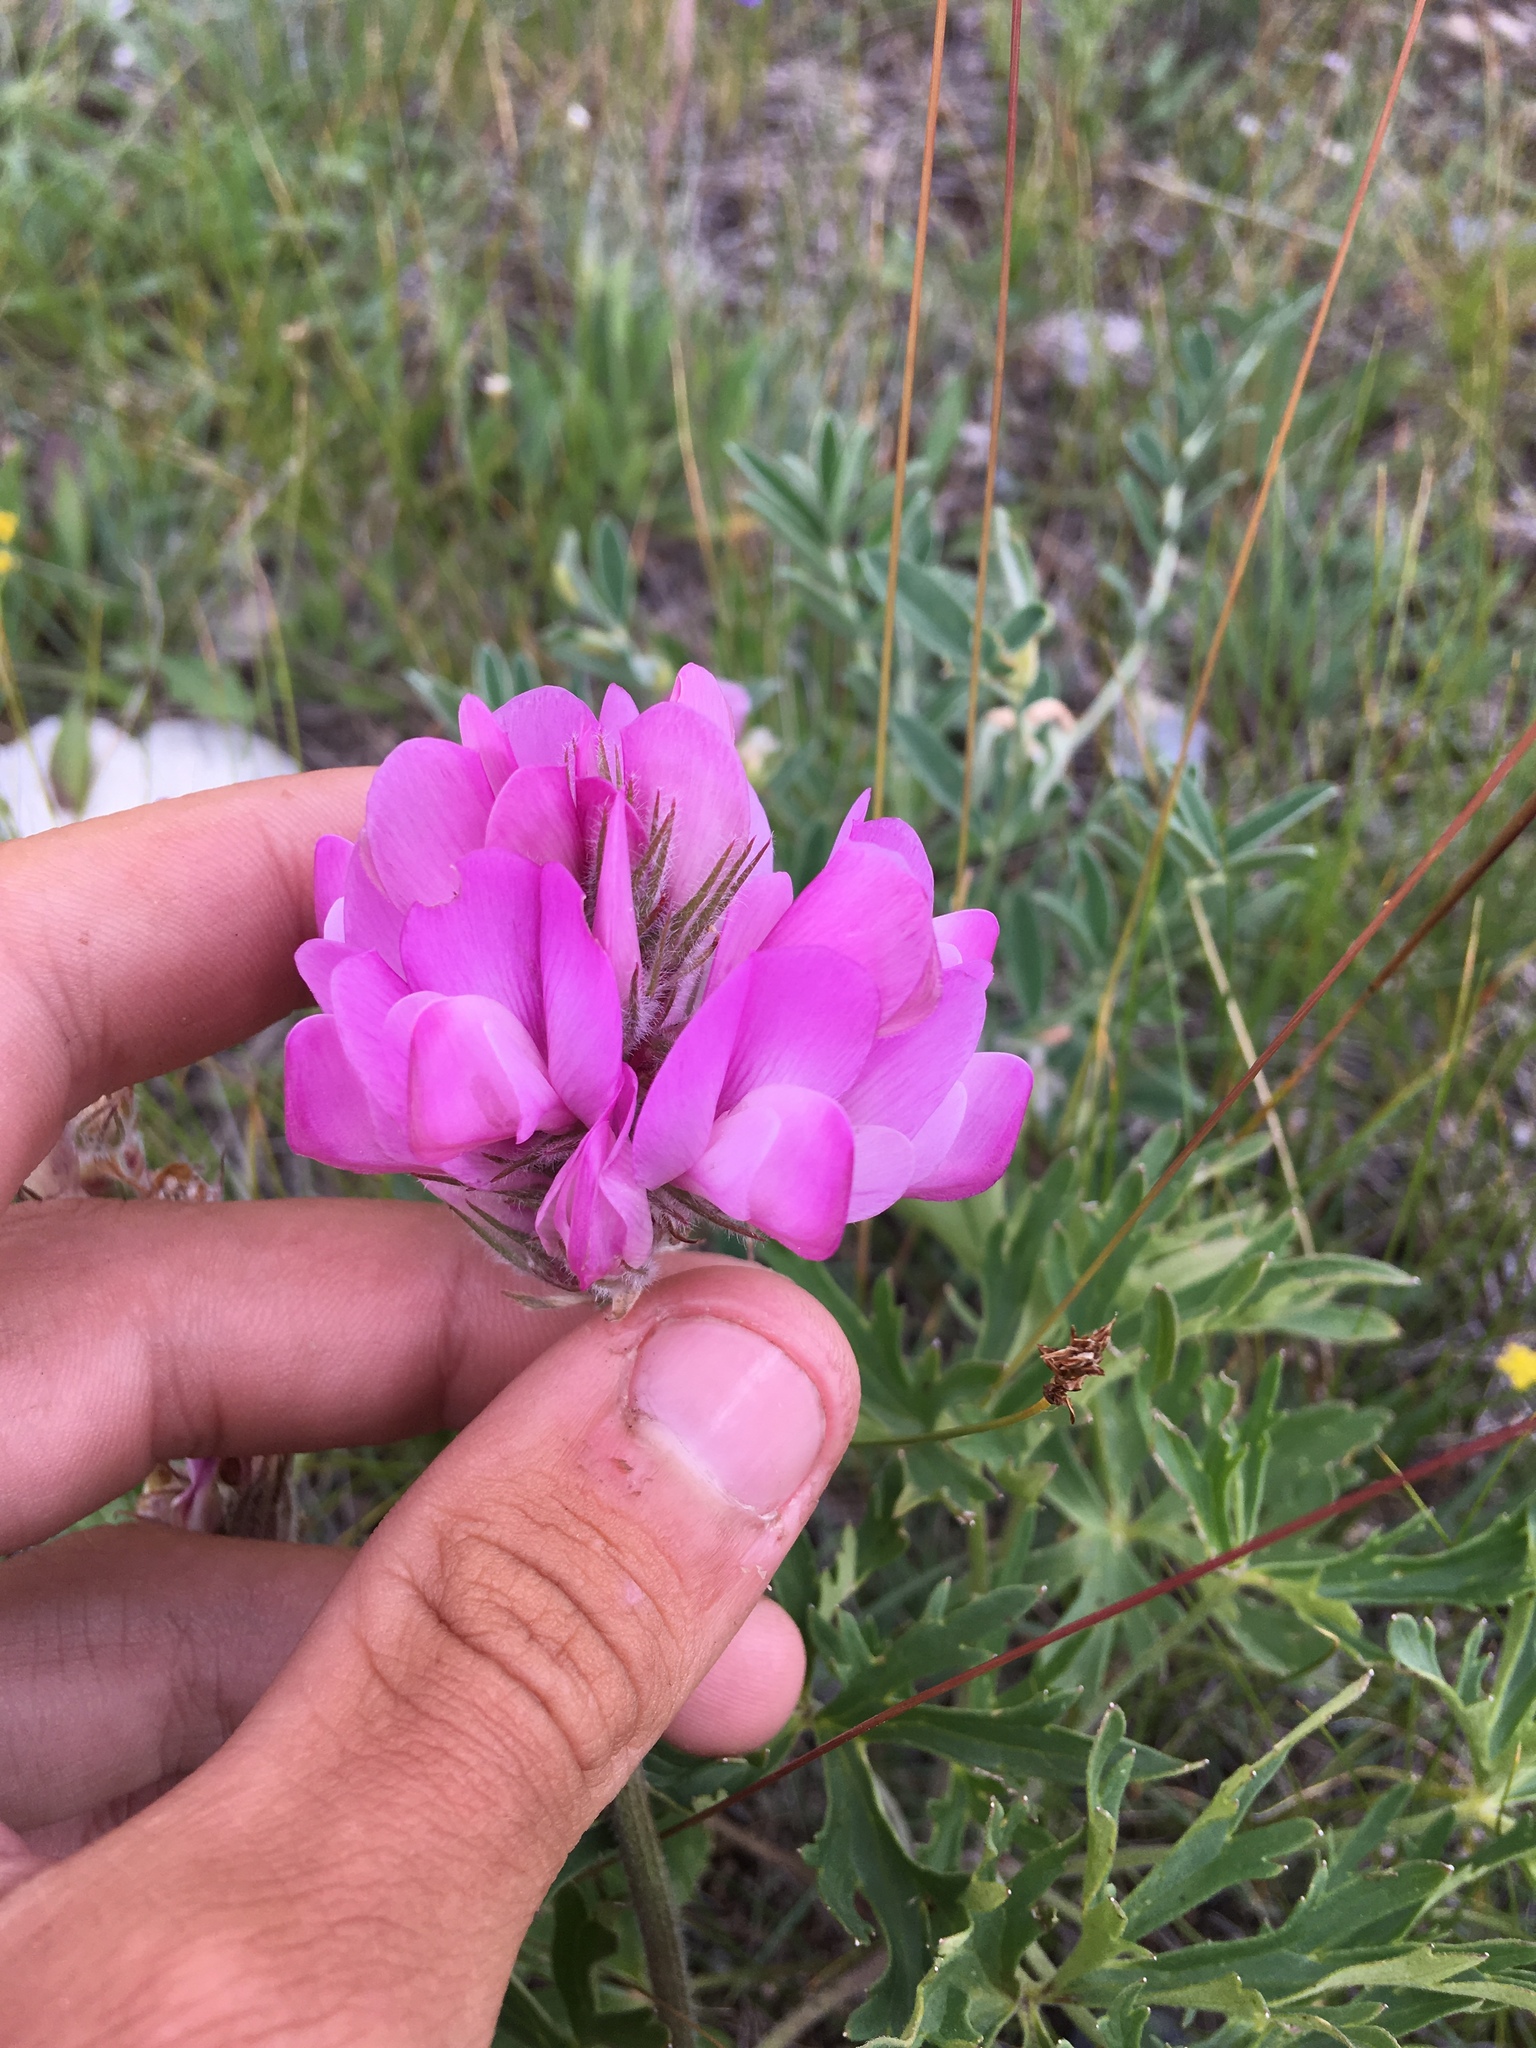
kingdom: Plantae
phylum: Tracheophyta
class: Magnoliopsida
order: Fabales
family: Fabaceae
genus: Hedysarum
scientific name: Hedysarum setigerum
